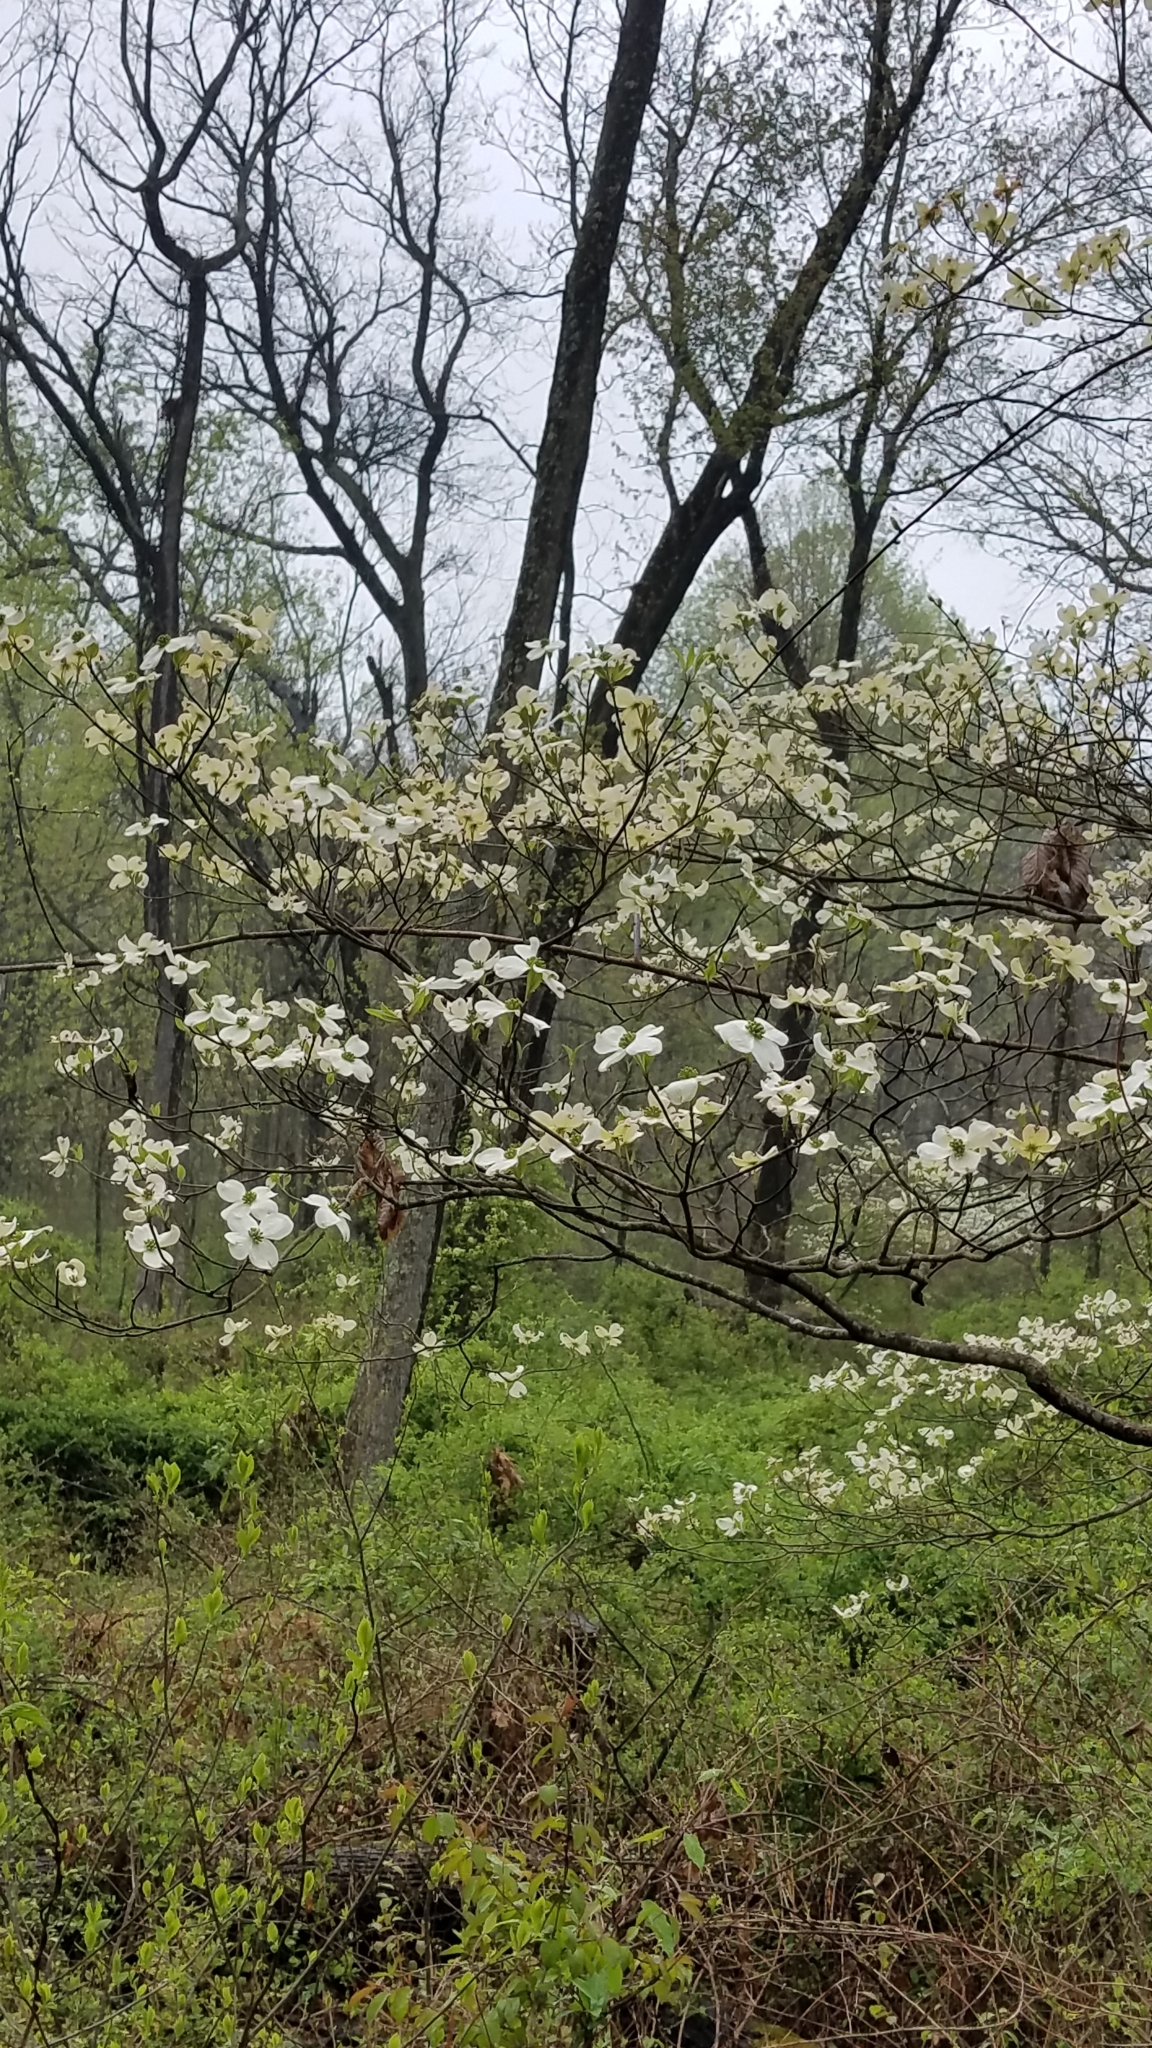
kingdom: Plantae
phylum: Tracheophyta
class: Magnoliopsida
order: Cornales
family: Cornaceae
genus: Cornus
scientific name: Cornus florida
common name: Flowering dogwood
